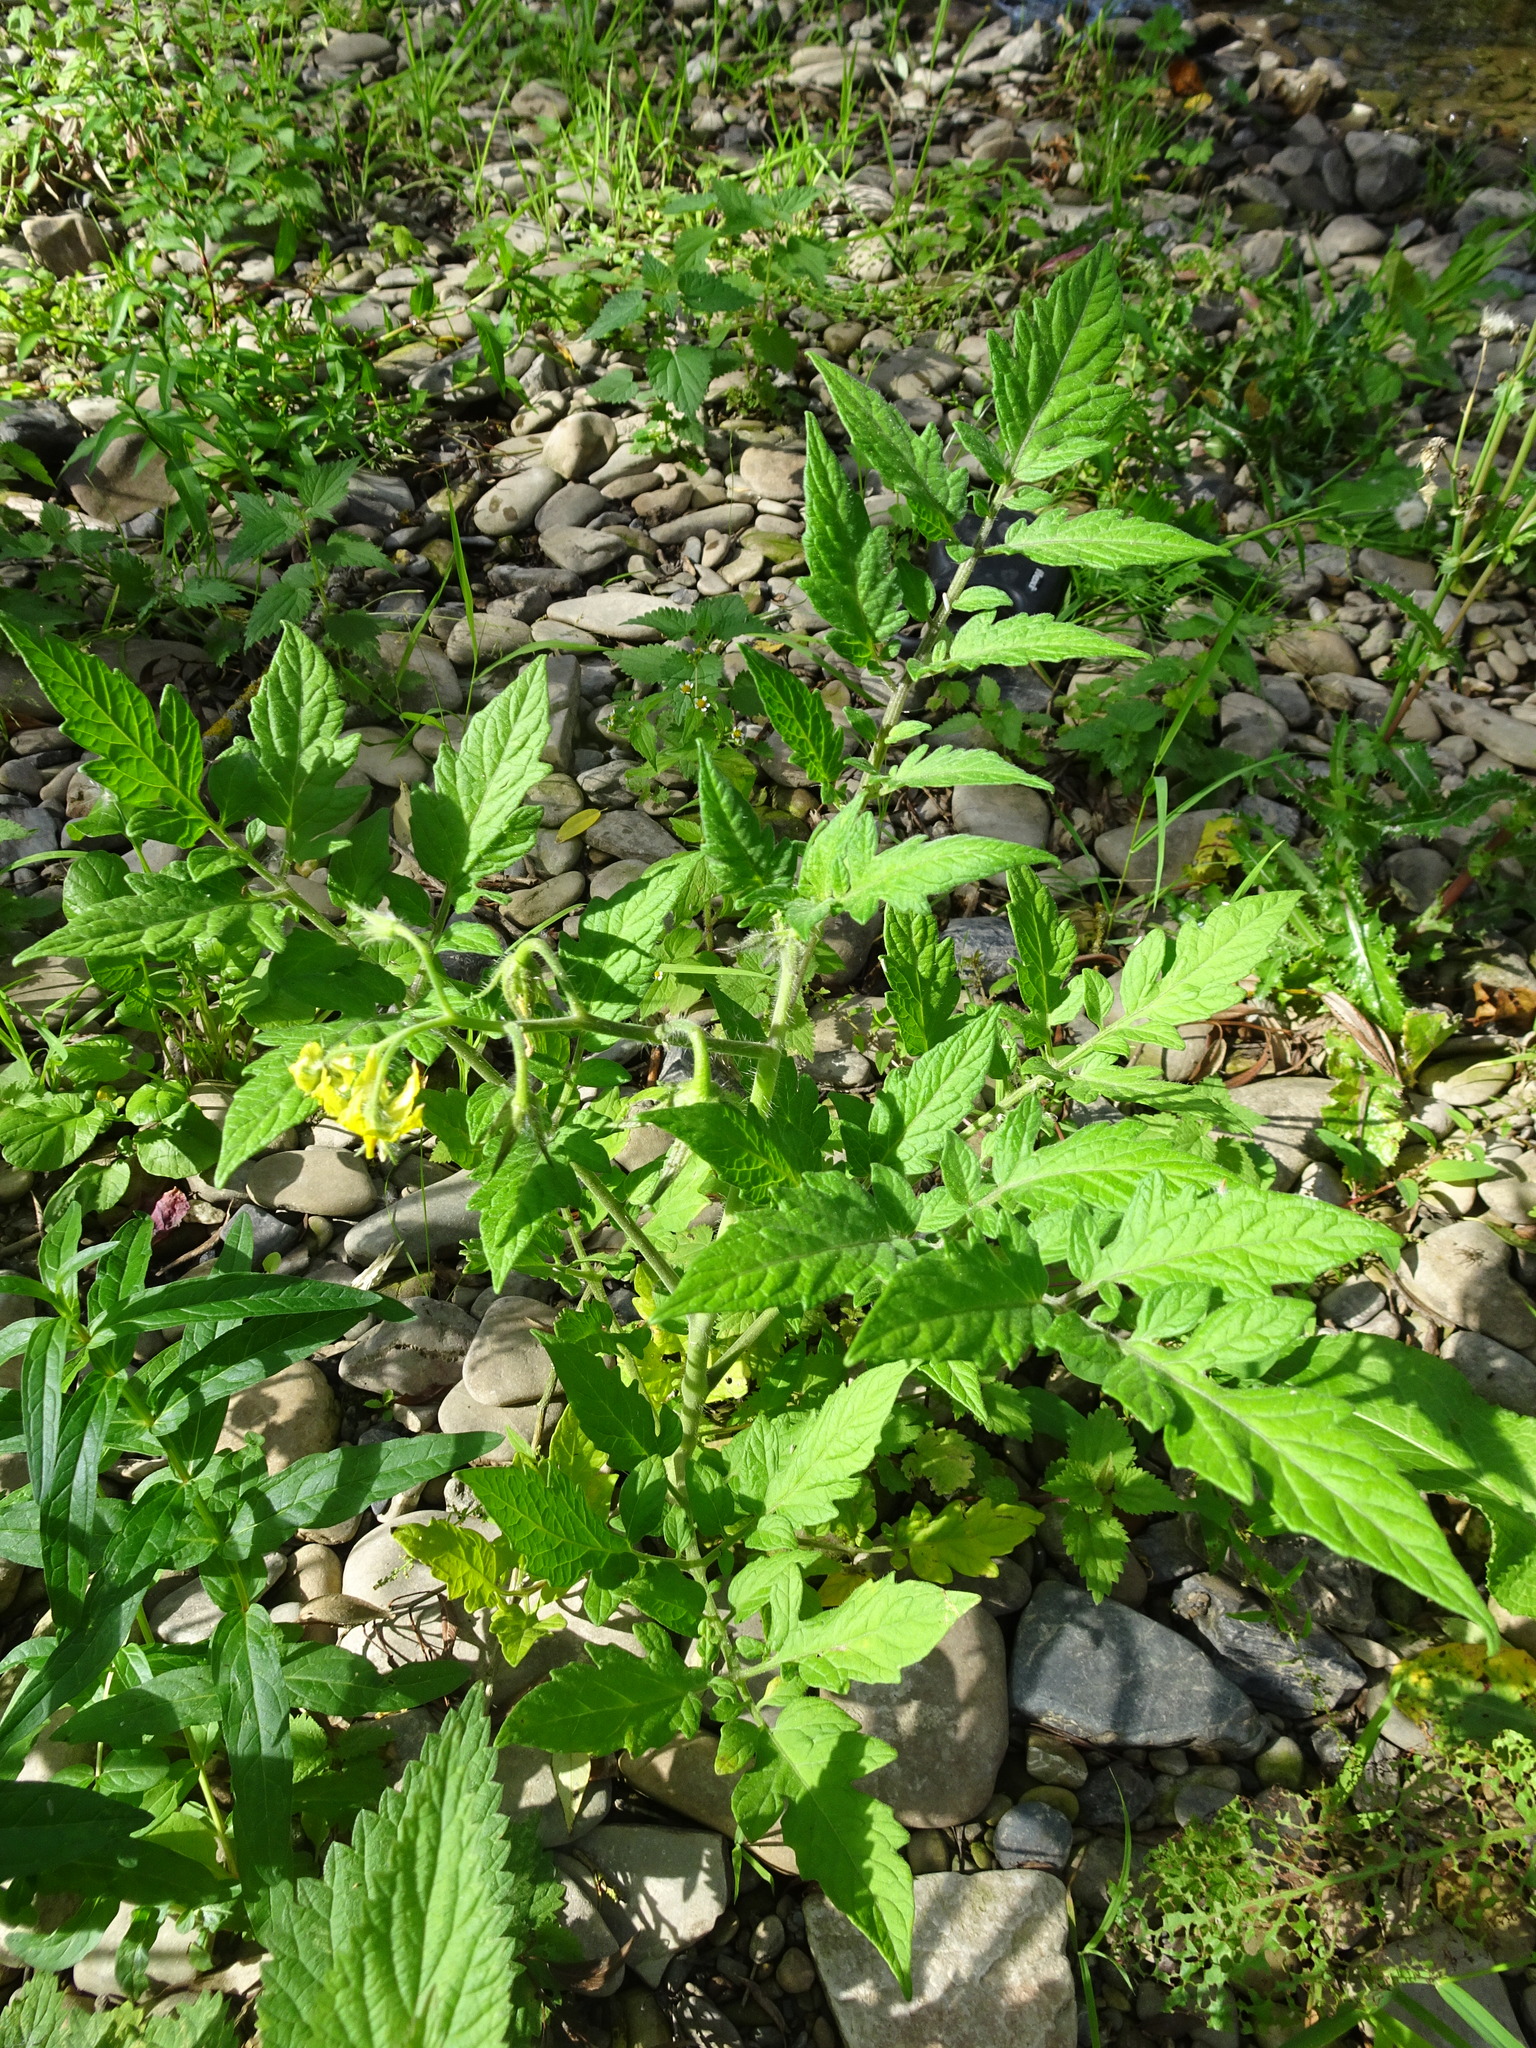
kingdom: Plantae
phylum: Tracheophyta
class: Magnoliopsida
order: Solanales
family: Solanaceae
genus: Solanum
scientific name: Solanum lycopersicum
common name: Garden tomato
